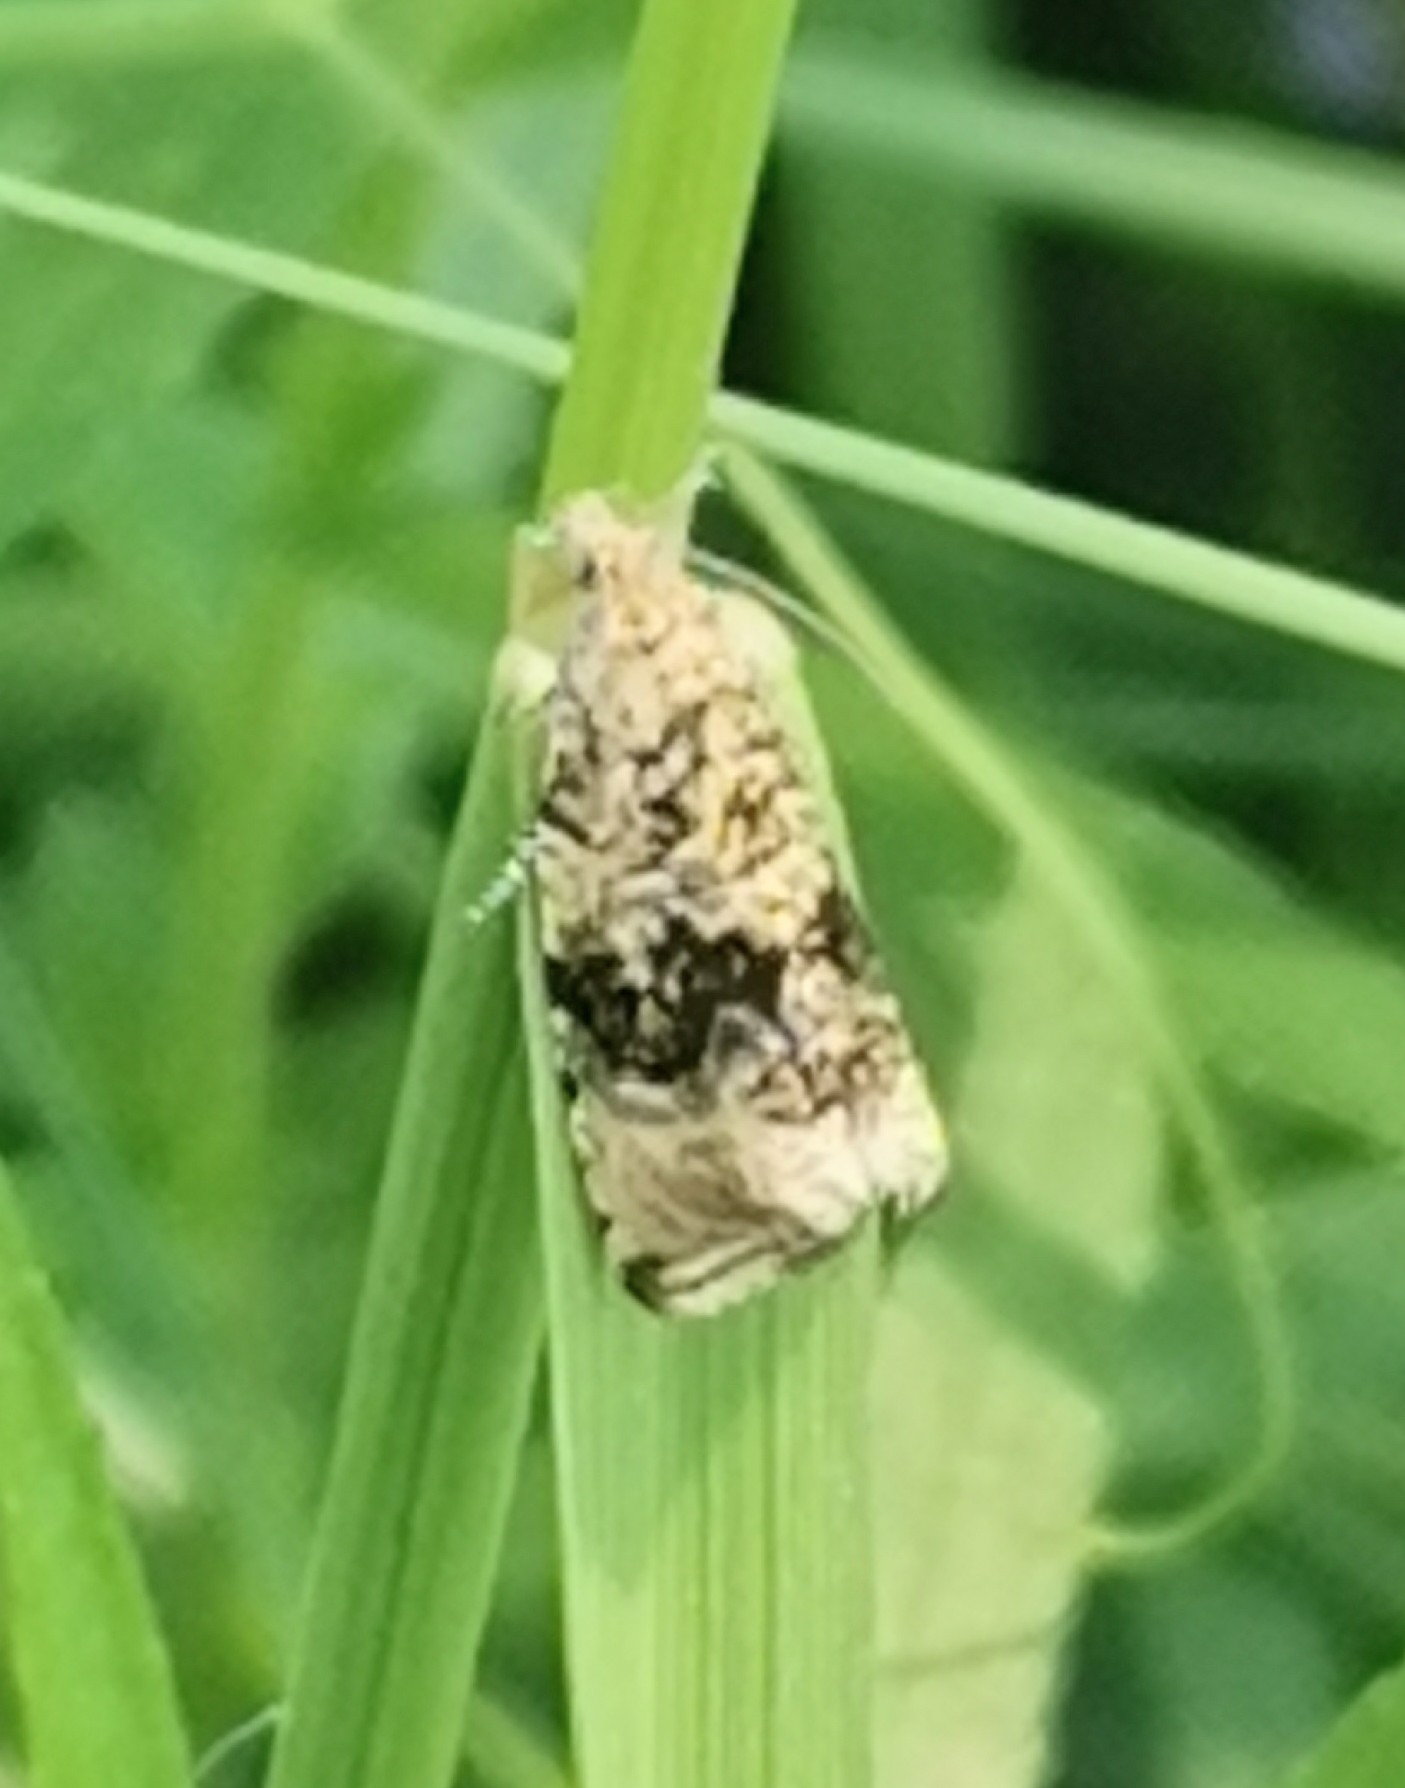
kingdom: Animalia
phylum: Arthropoda
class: Insecta
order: Lepidoptera
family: Tortricidae
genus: Syricoris
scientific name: Syricoris lacunana
